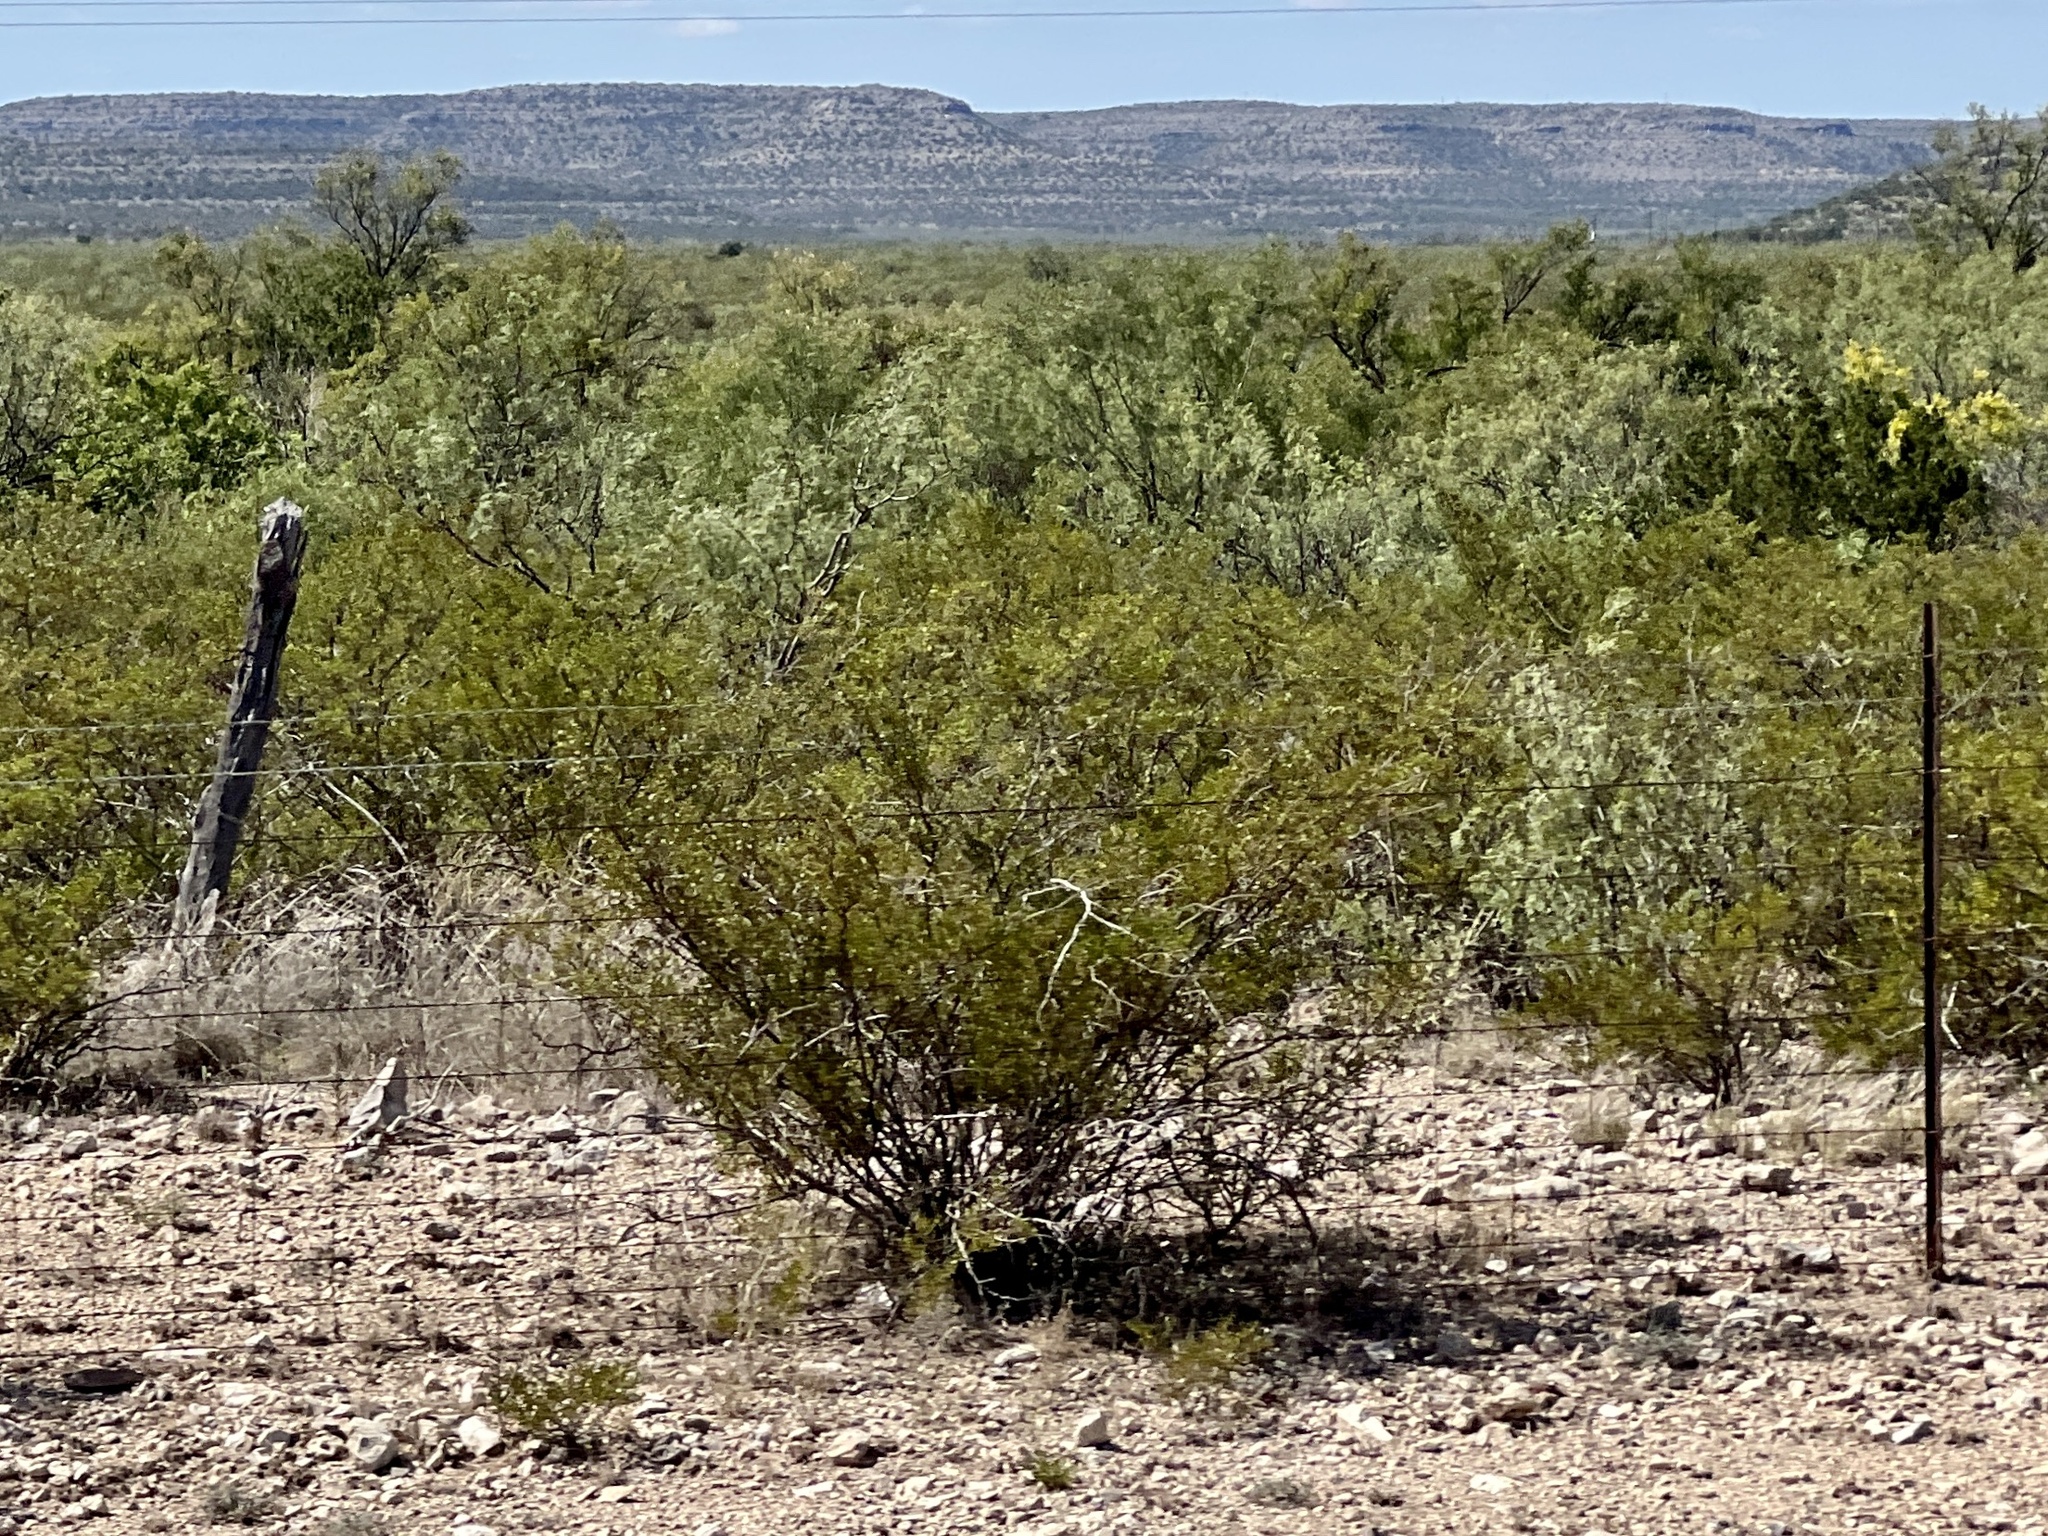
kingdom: Plantae
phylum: Tracheophyta
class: Magnoliopsida
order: Zygophyllales
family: Zygophyllaceae
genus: Larrea
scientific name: Larrea tridentata
